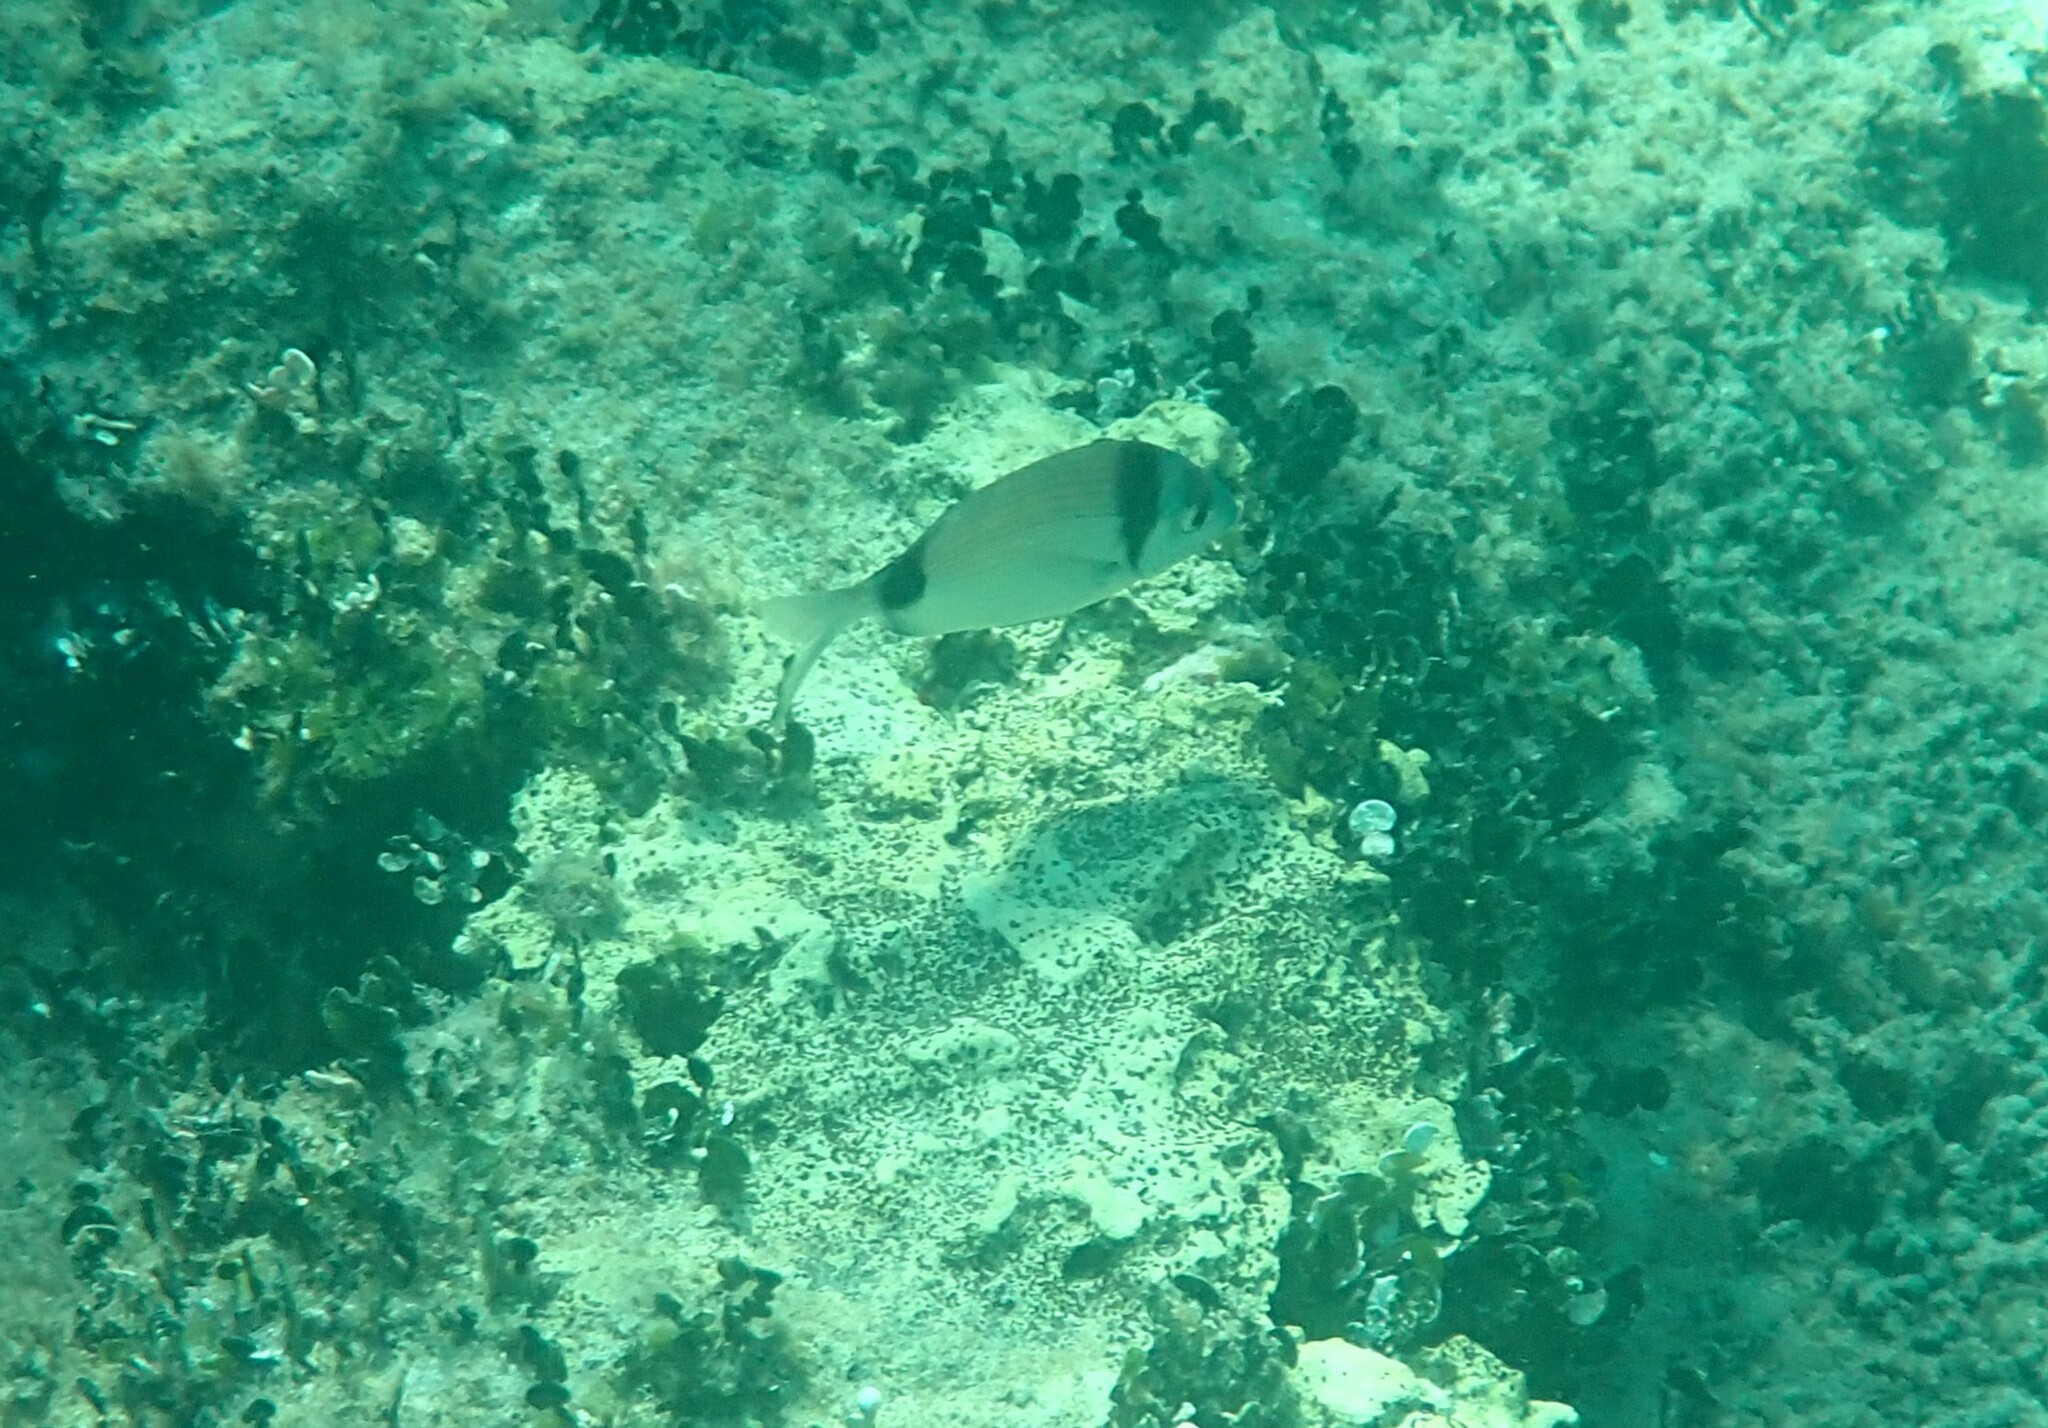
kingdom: Animalia
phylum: Chordata
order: Perciformes
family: Sparidae
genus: Diplodus
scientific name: Diplodus vulgaris
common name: Common two-banded seabream
